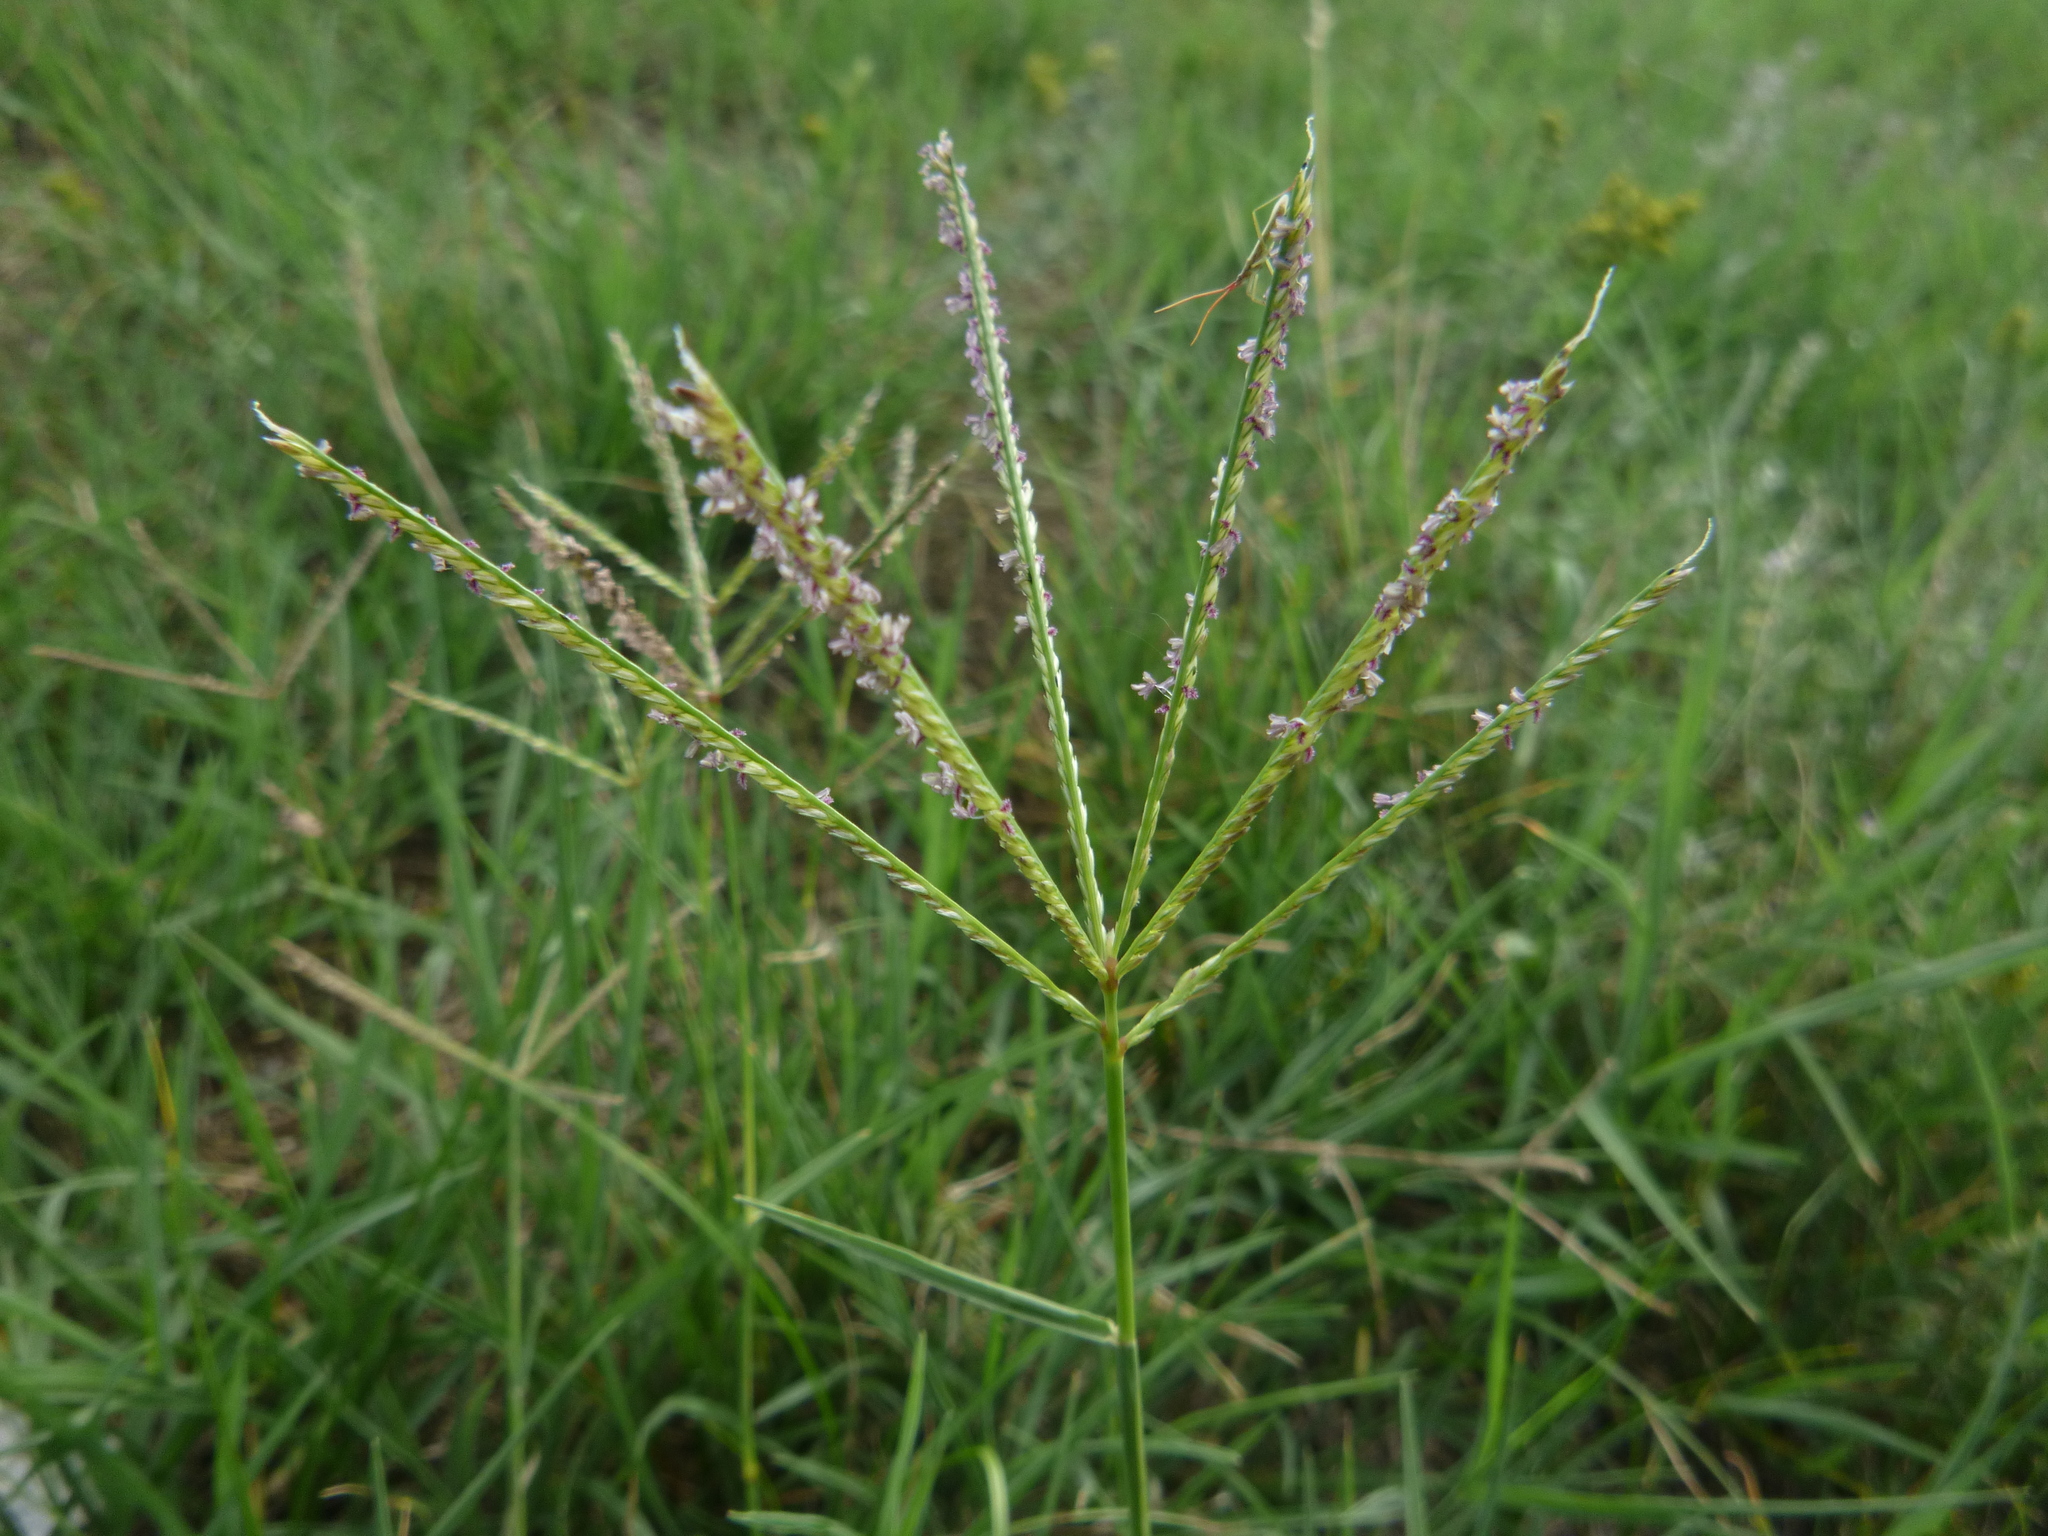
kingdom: Plantae
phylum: Tracheophyta
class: Liliopsida
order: Poales
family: Poaceae
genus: Cynodon
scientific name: Cynodon dactylon
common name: Bermuda grass
